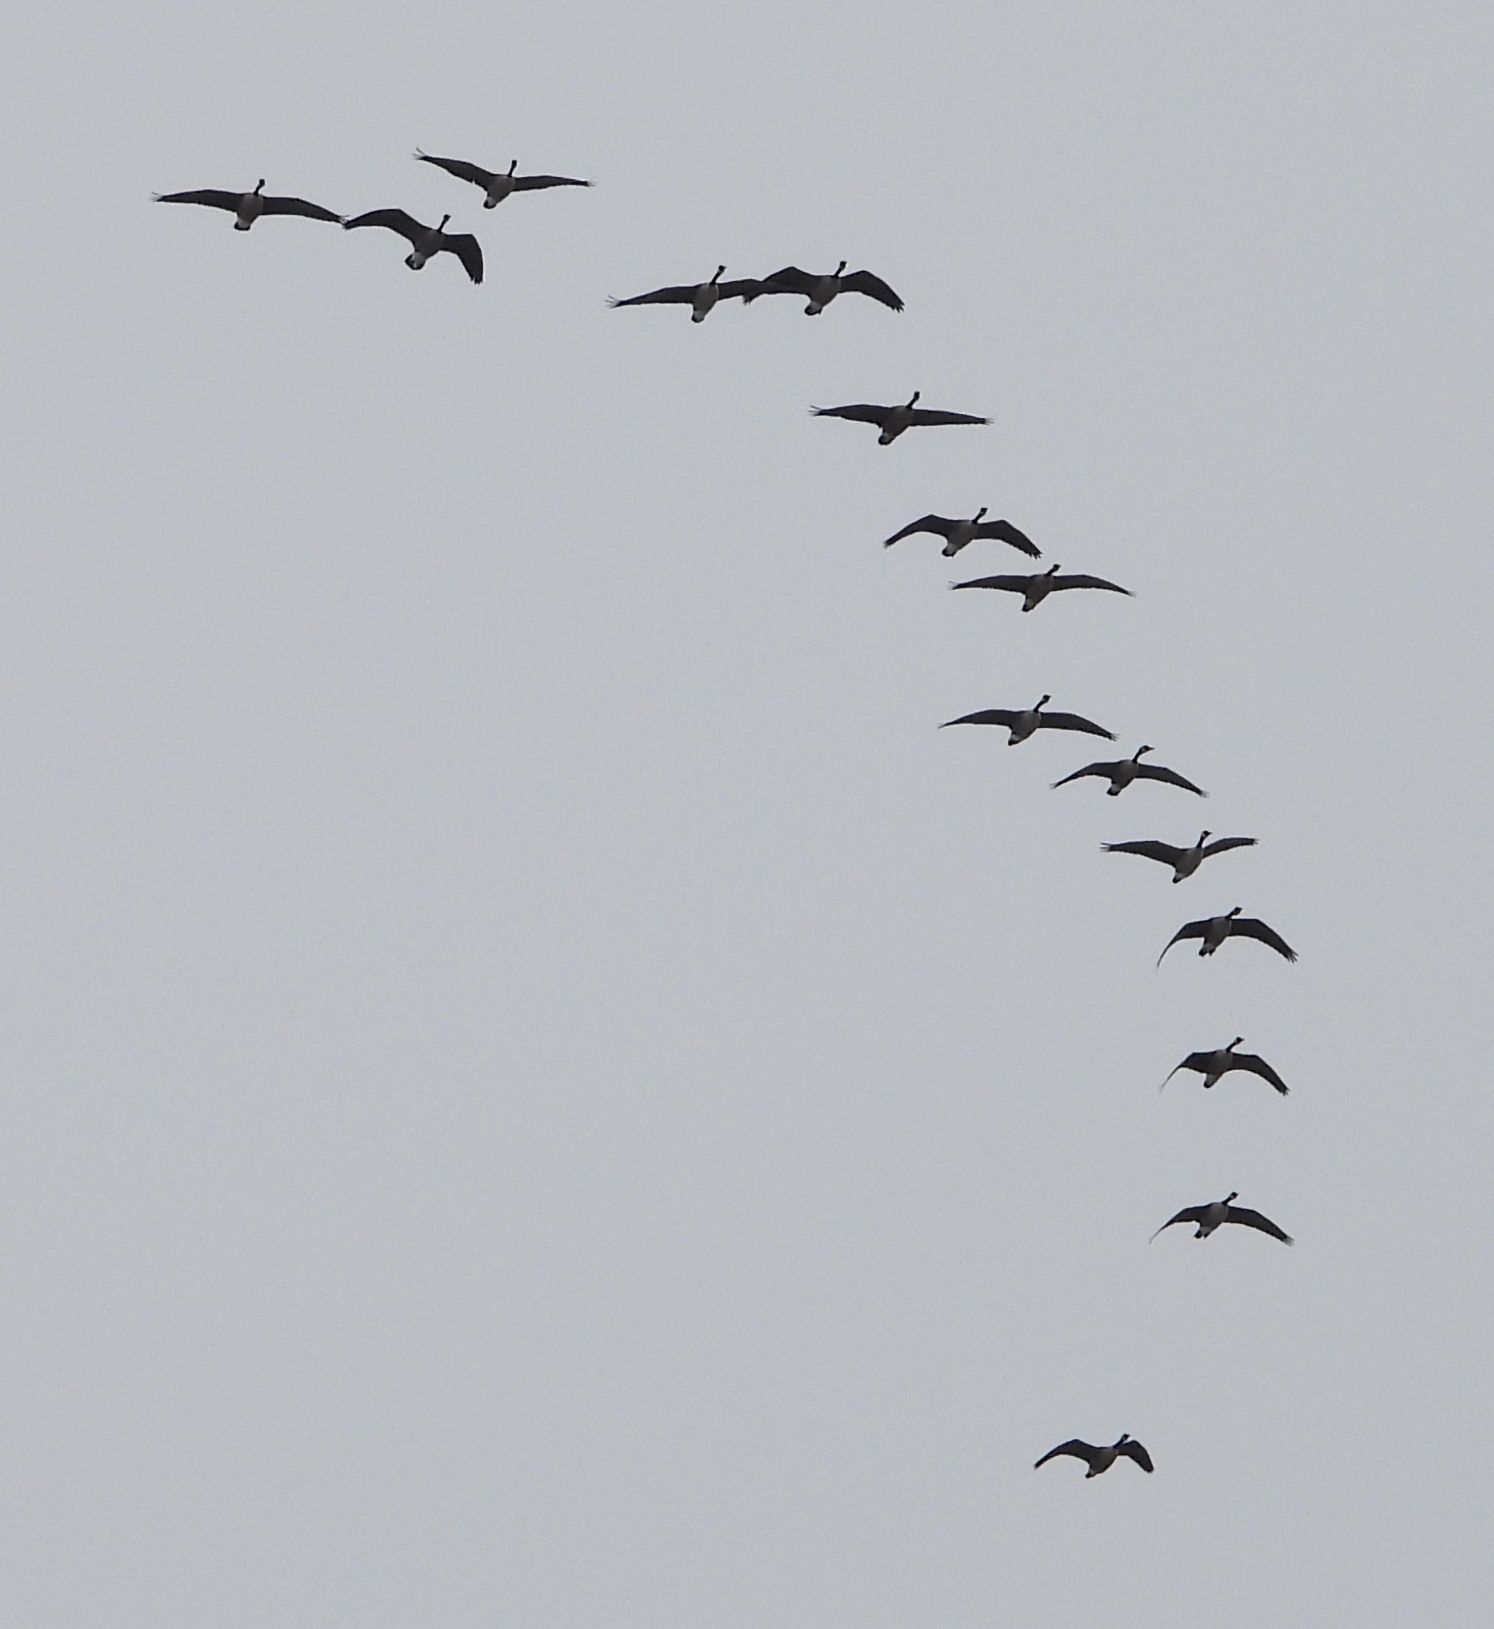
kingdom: Animalia
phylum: Chordata
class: Aves
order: Anseriformes
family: Anatidae
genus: Branta
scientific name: Branta canadensis
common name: Canada goose
